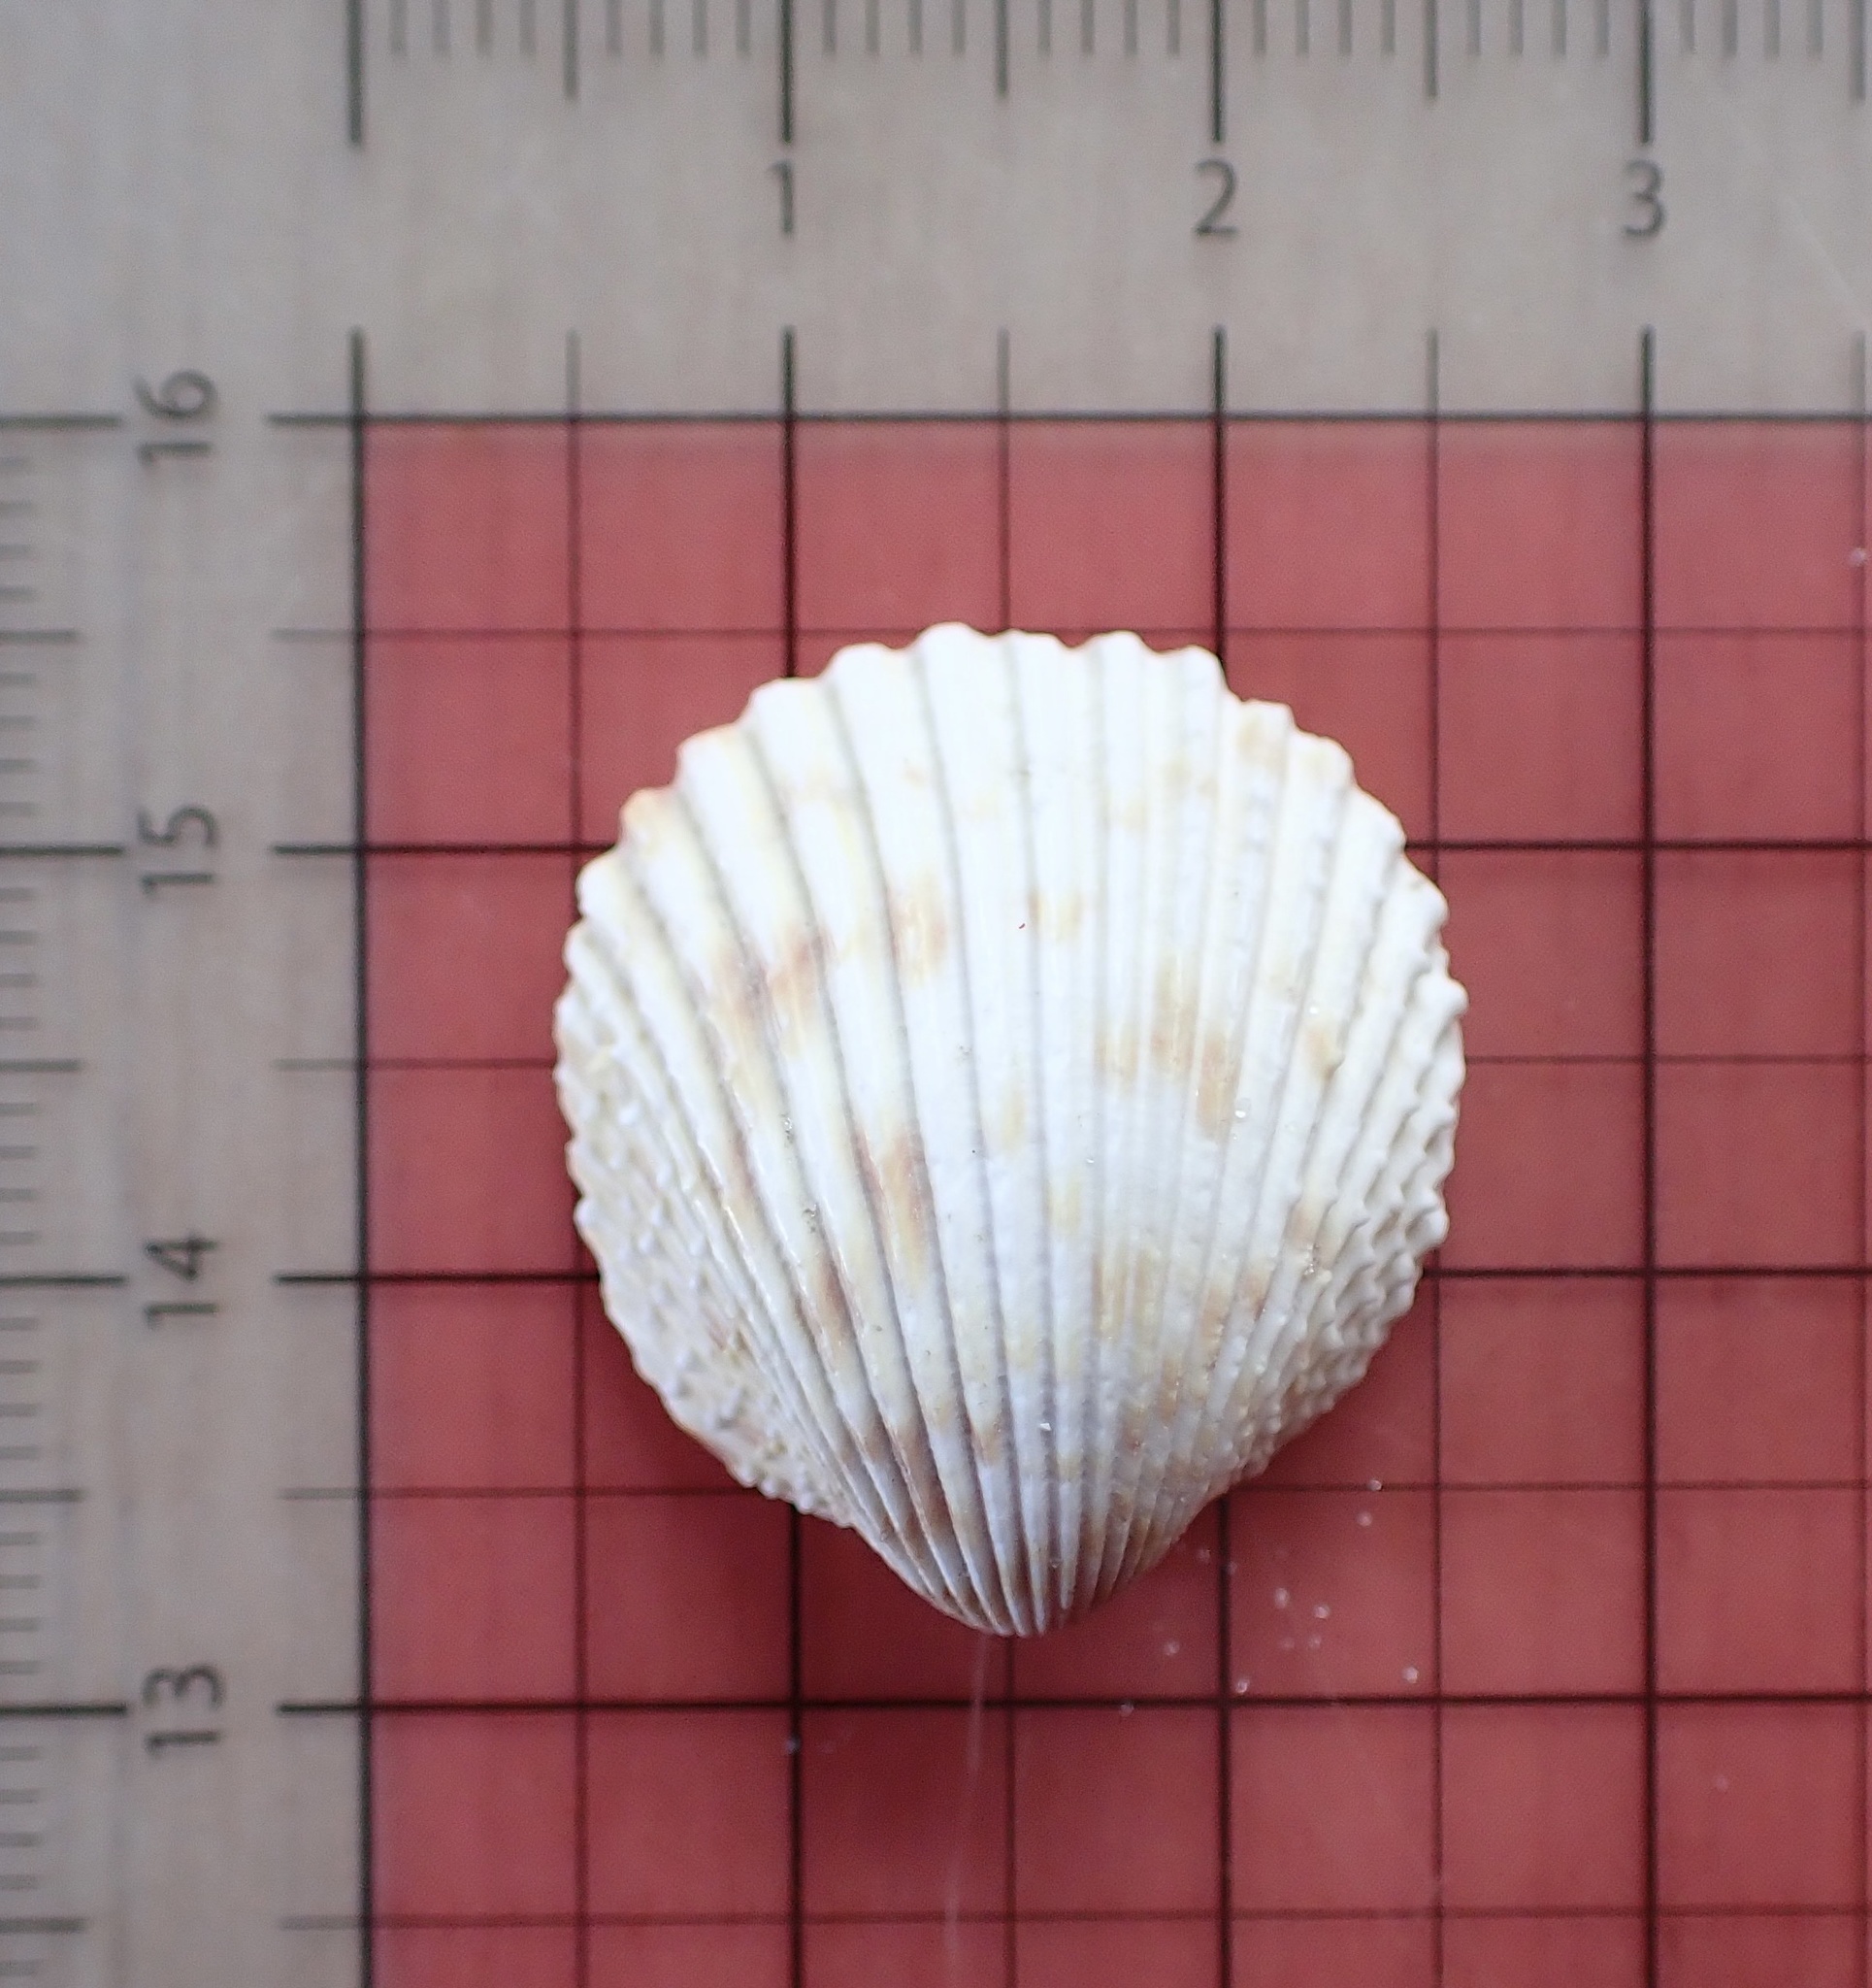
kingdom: Animalia
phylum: Mollusca
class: Bivalvia
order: Cardiida
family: Cardiidae
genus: Trachycardium
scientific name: Trachycardium egmontianum
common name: Florida pricklycockle
